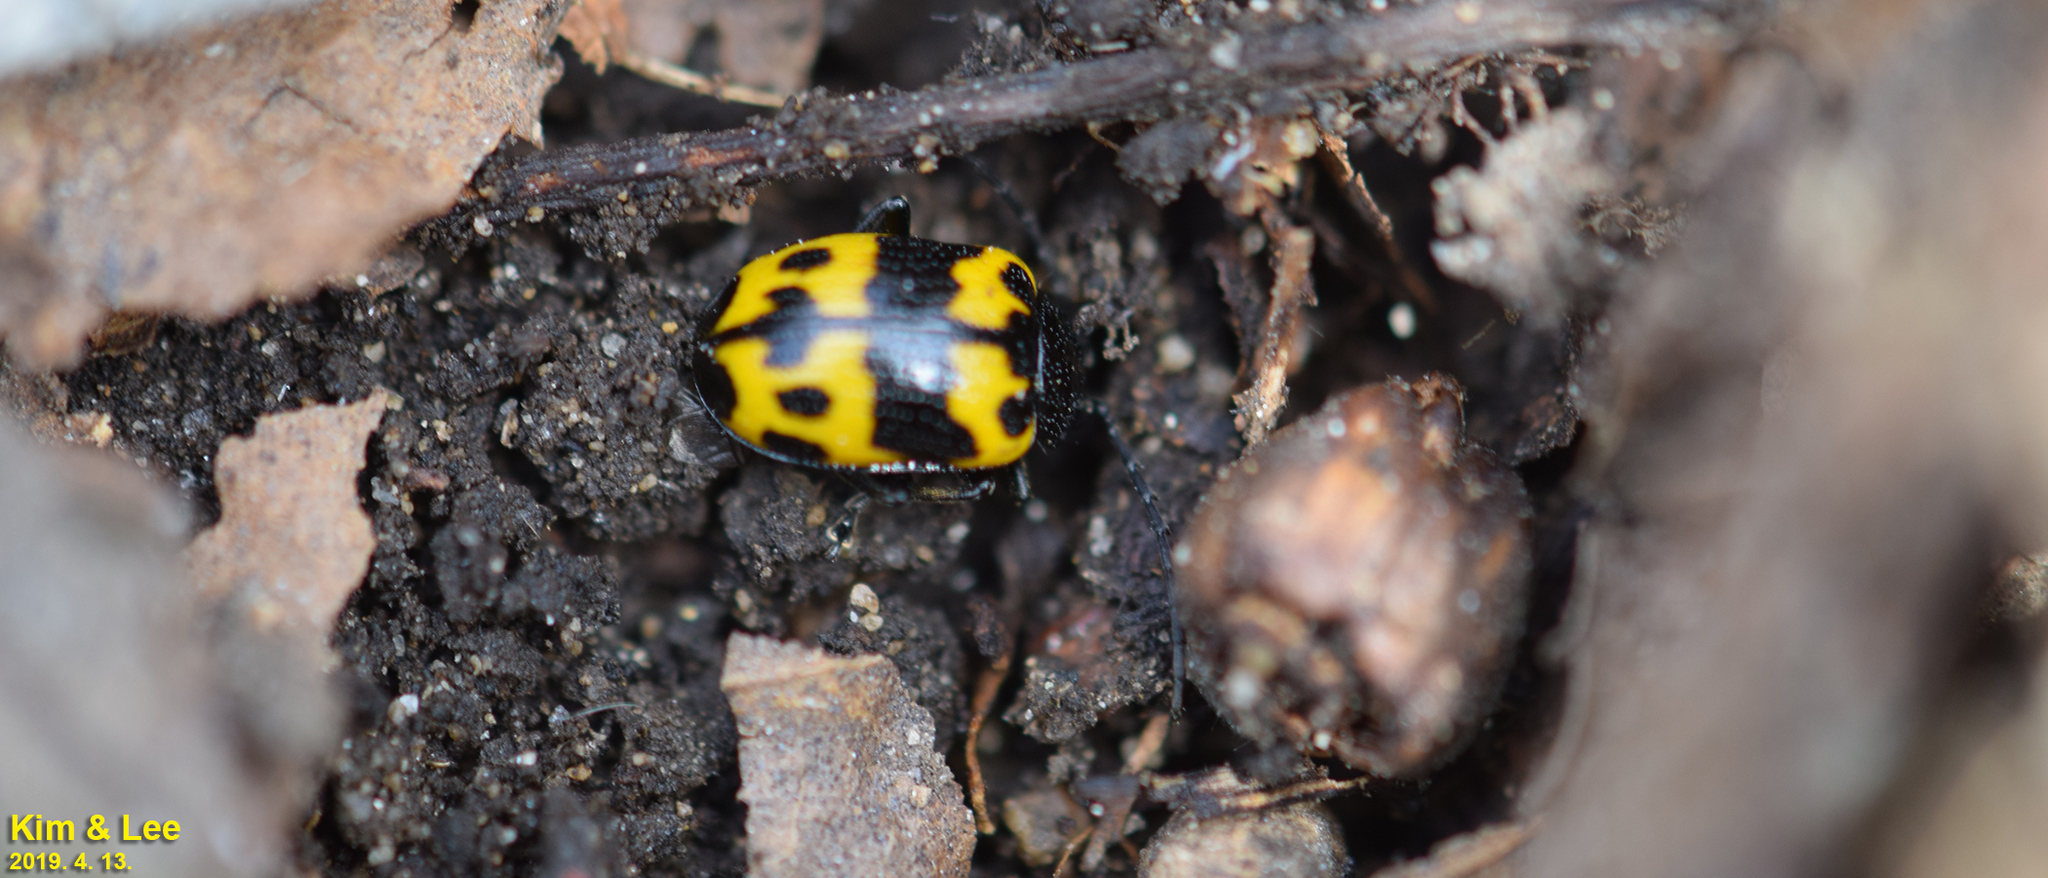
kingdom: Animalia
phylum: Arthropoda
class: Insecta
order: Coleoptera
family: Chrysomelidae
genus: Gallerucida
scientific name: Gallerucida bifasciata
